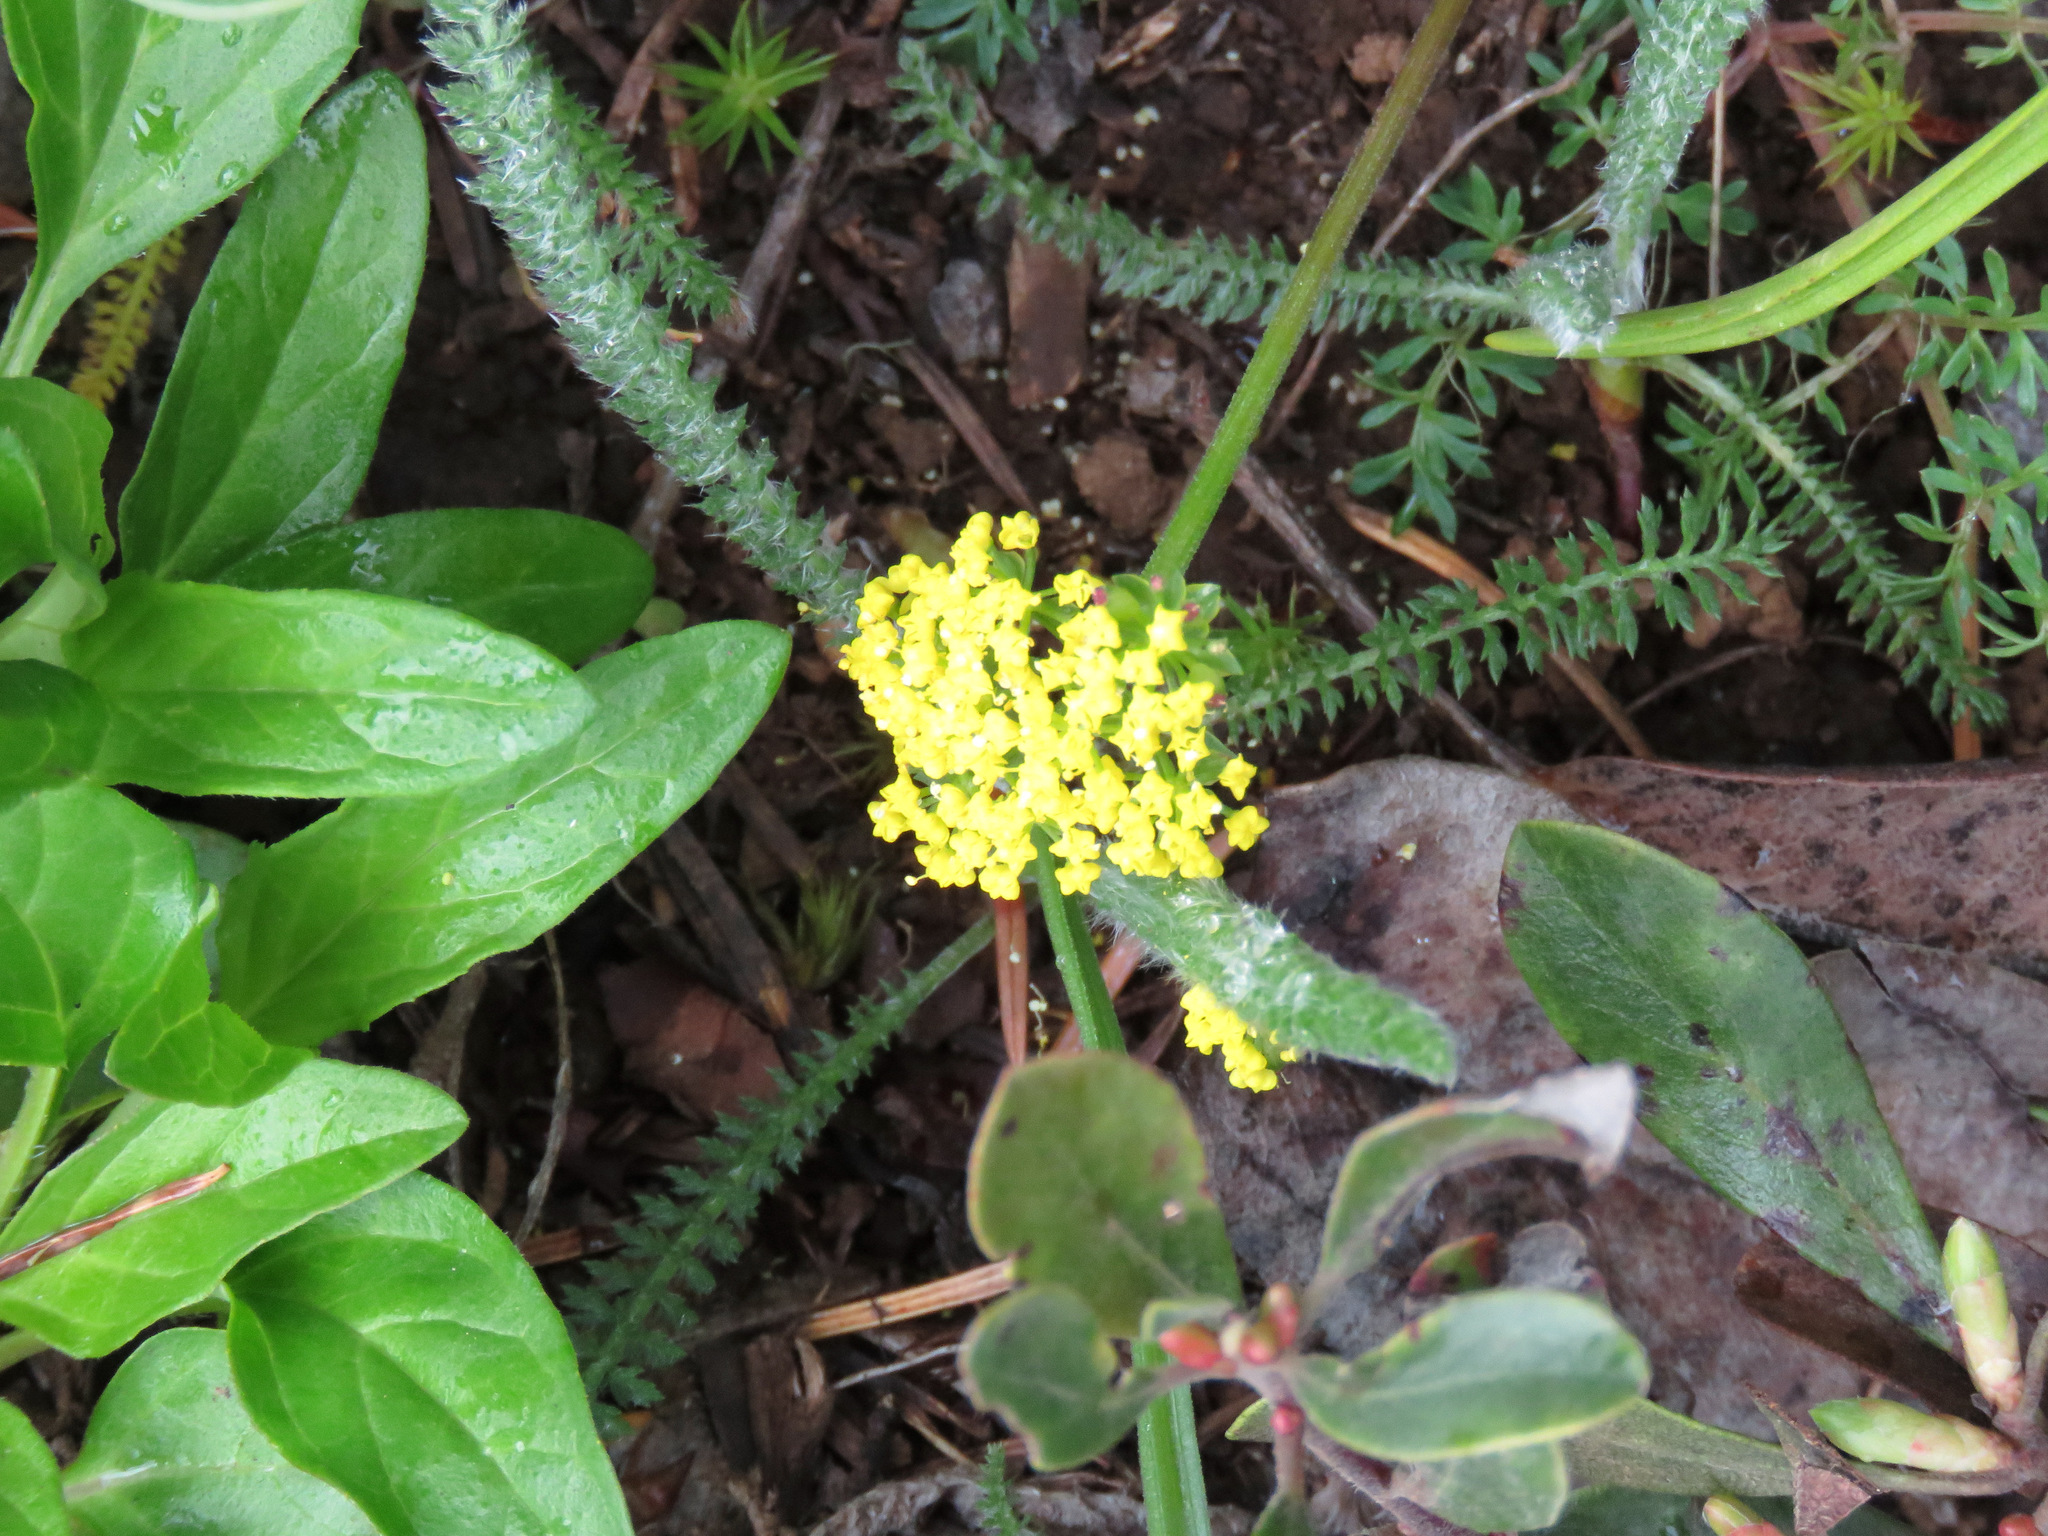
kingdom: Plantae
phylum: Tracheophyta
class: Magnoliopsida
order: Apiales
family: Apiaceae
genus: Lomatium
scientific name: Lomatium utriculatum
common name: Fine-leaf desert-parsley
